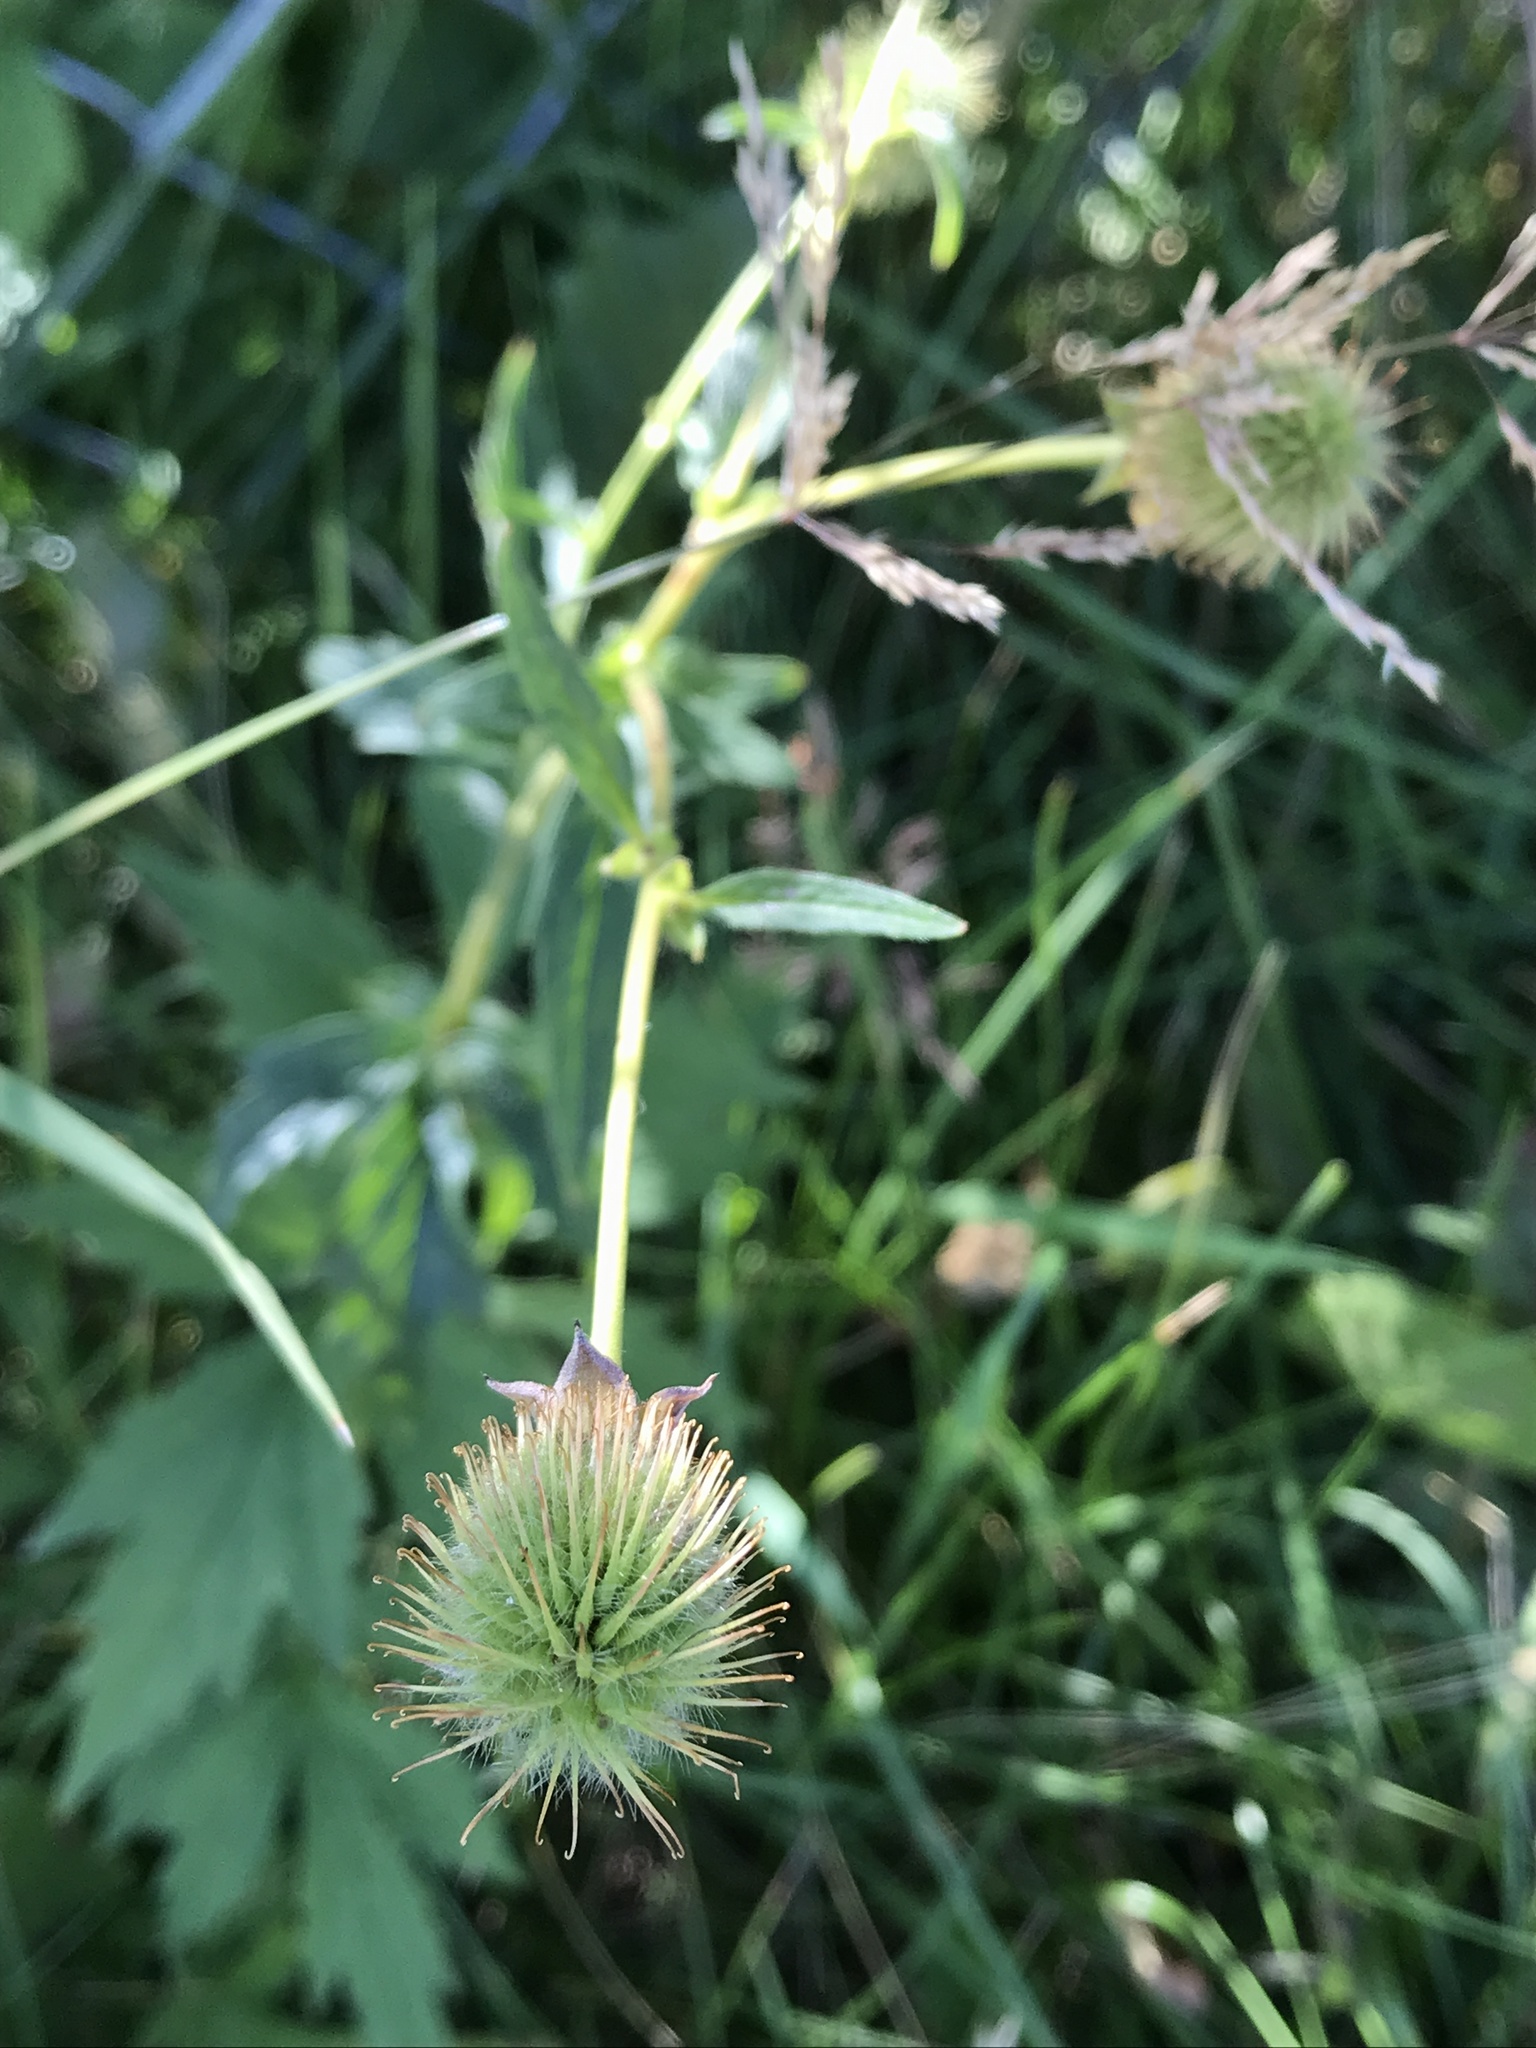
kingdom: Plantae
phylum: Tracheophyta
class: Magnoliopsida
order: Rosales
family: Rosaceae
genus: Geum
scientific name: Geum aleppicum
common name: Yellow avens
